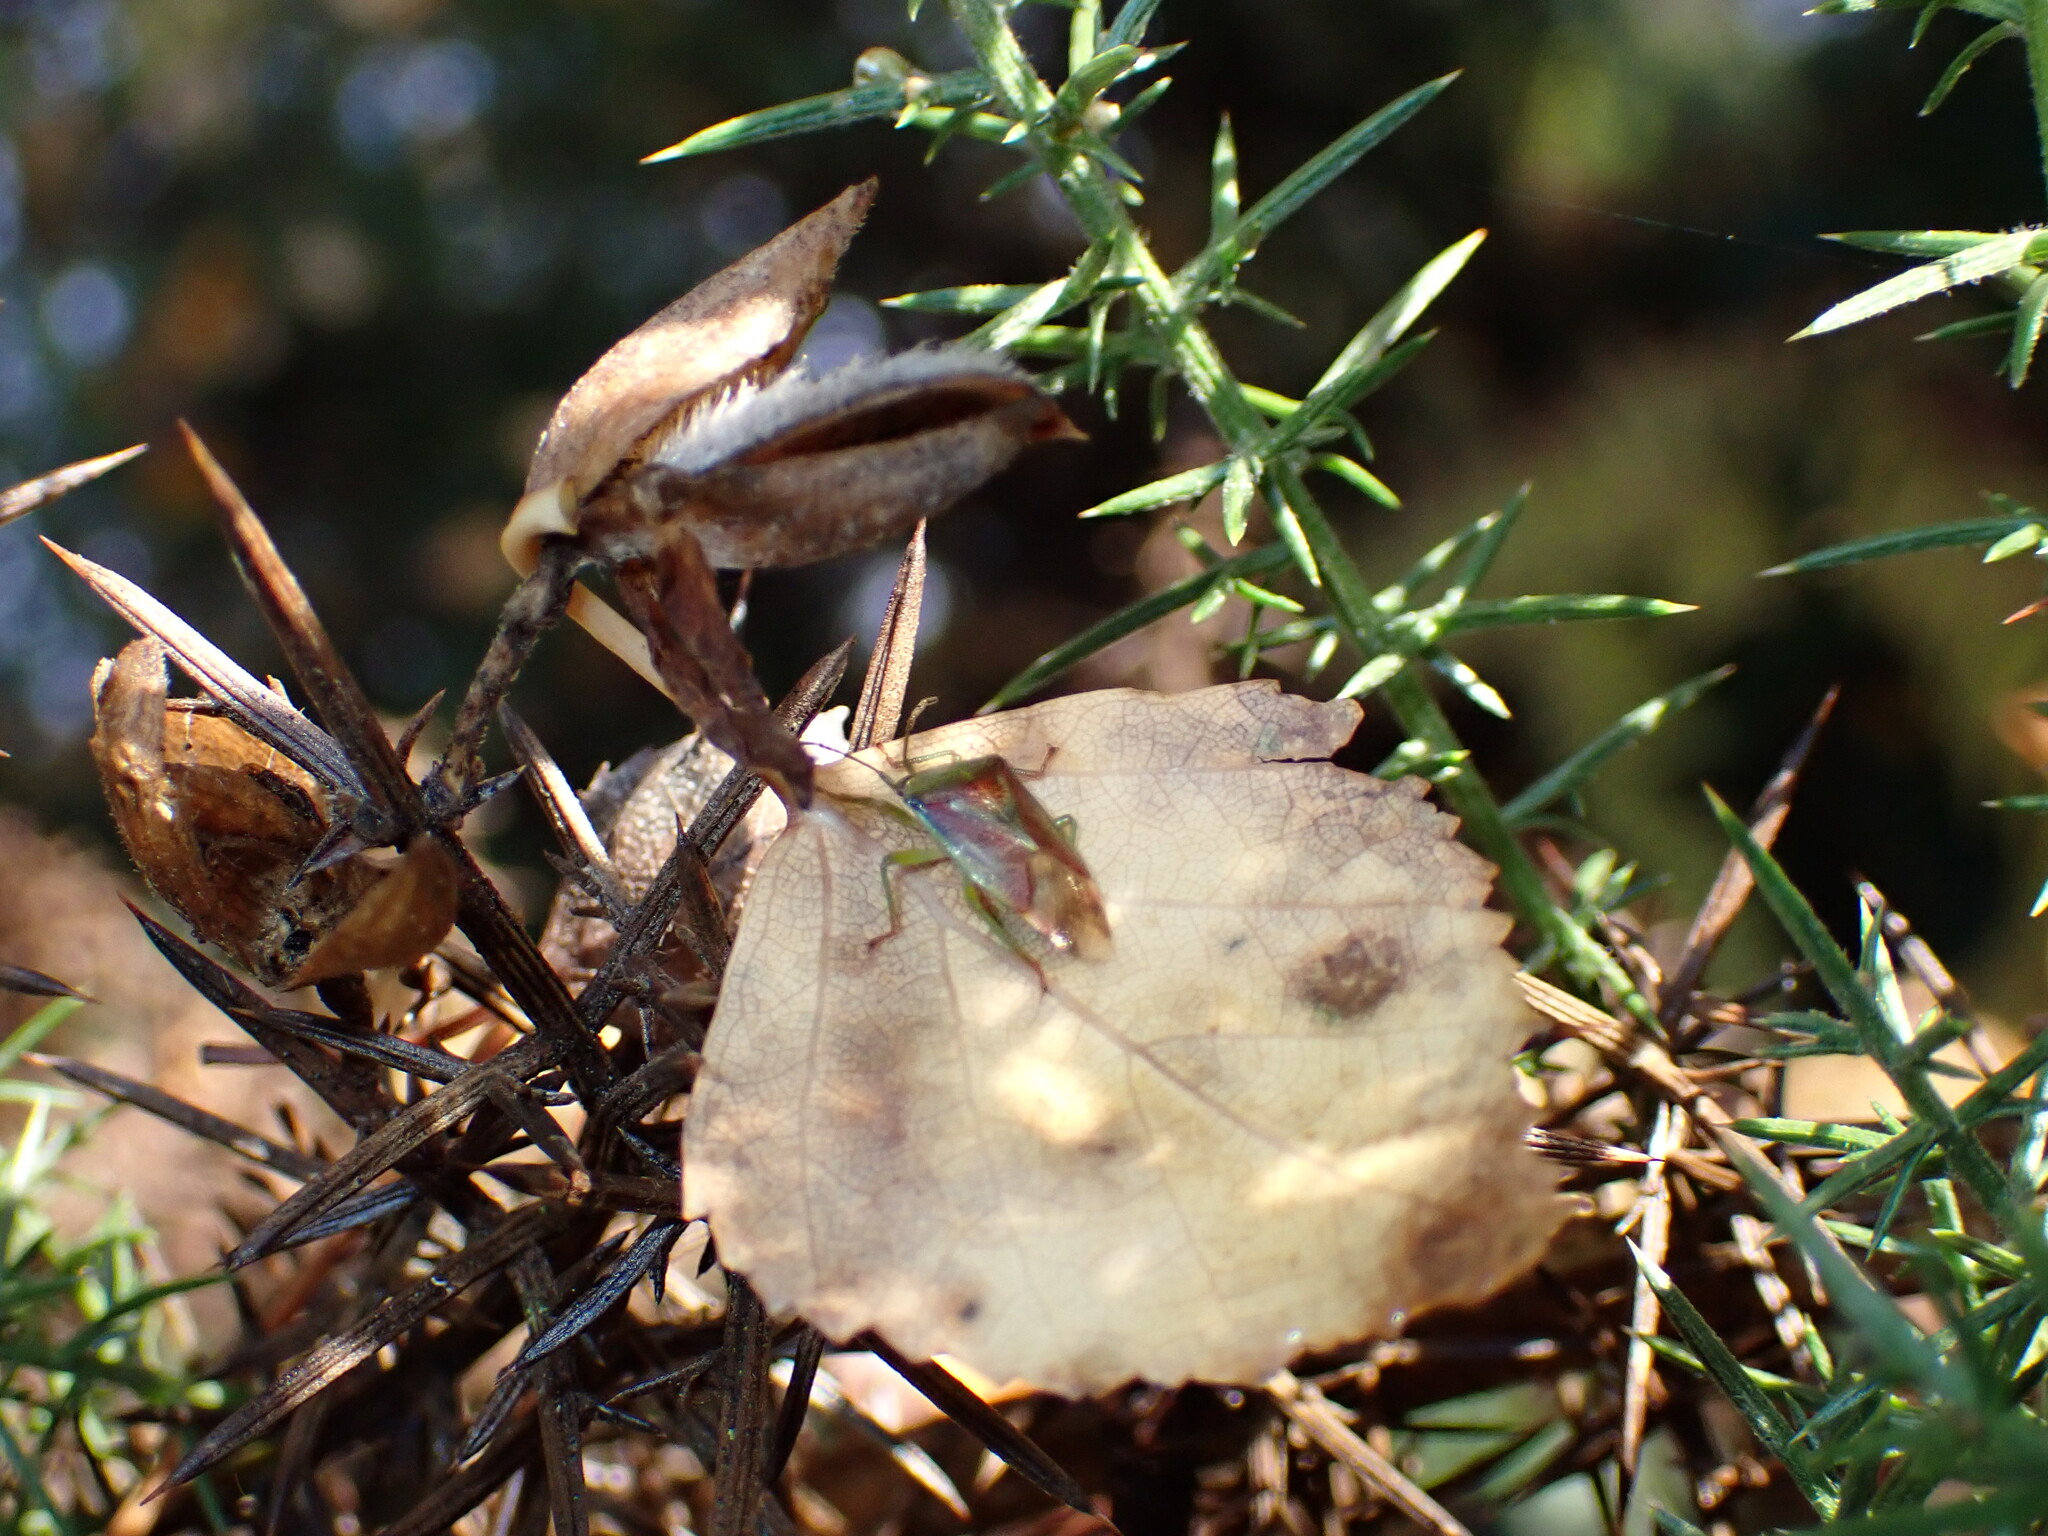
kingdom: Animalia
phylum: Arthropoda
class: Insecta
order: Hemiptera
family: Acanthosomatidae
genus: Elasmostethus
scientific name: Elasmostethus interstinctus
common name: Birch shieldbug
